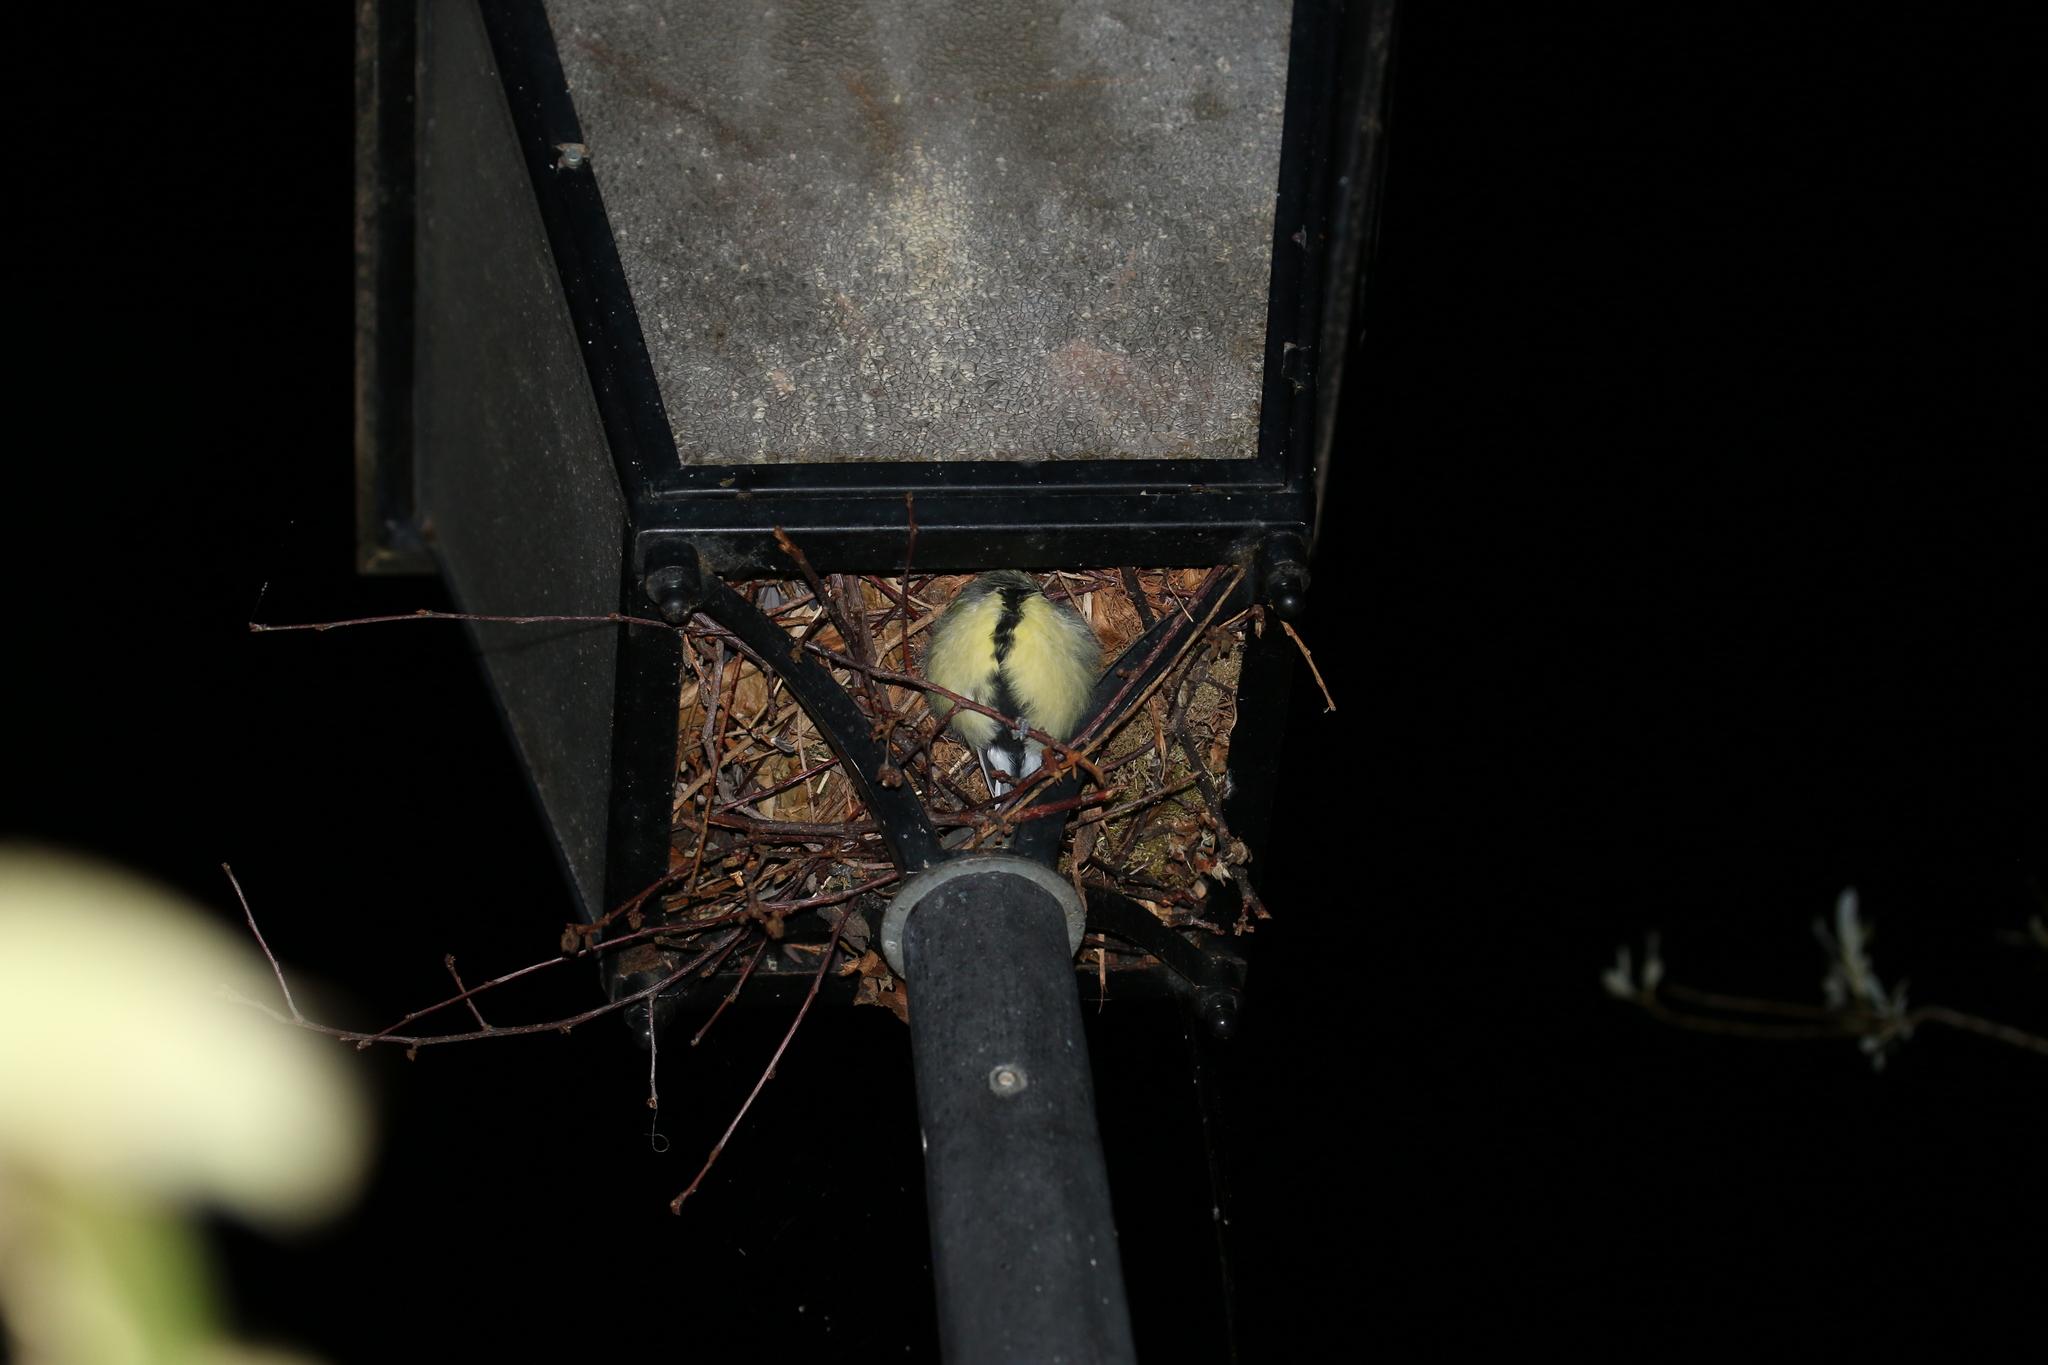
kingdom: Animalia
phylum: Chordata
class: Aves
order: Passeriformes
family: Paridae
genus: Parus
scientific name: Parus major
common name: Great tit
